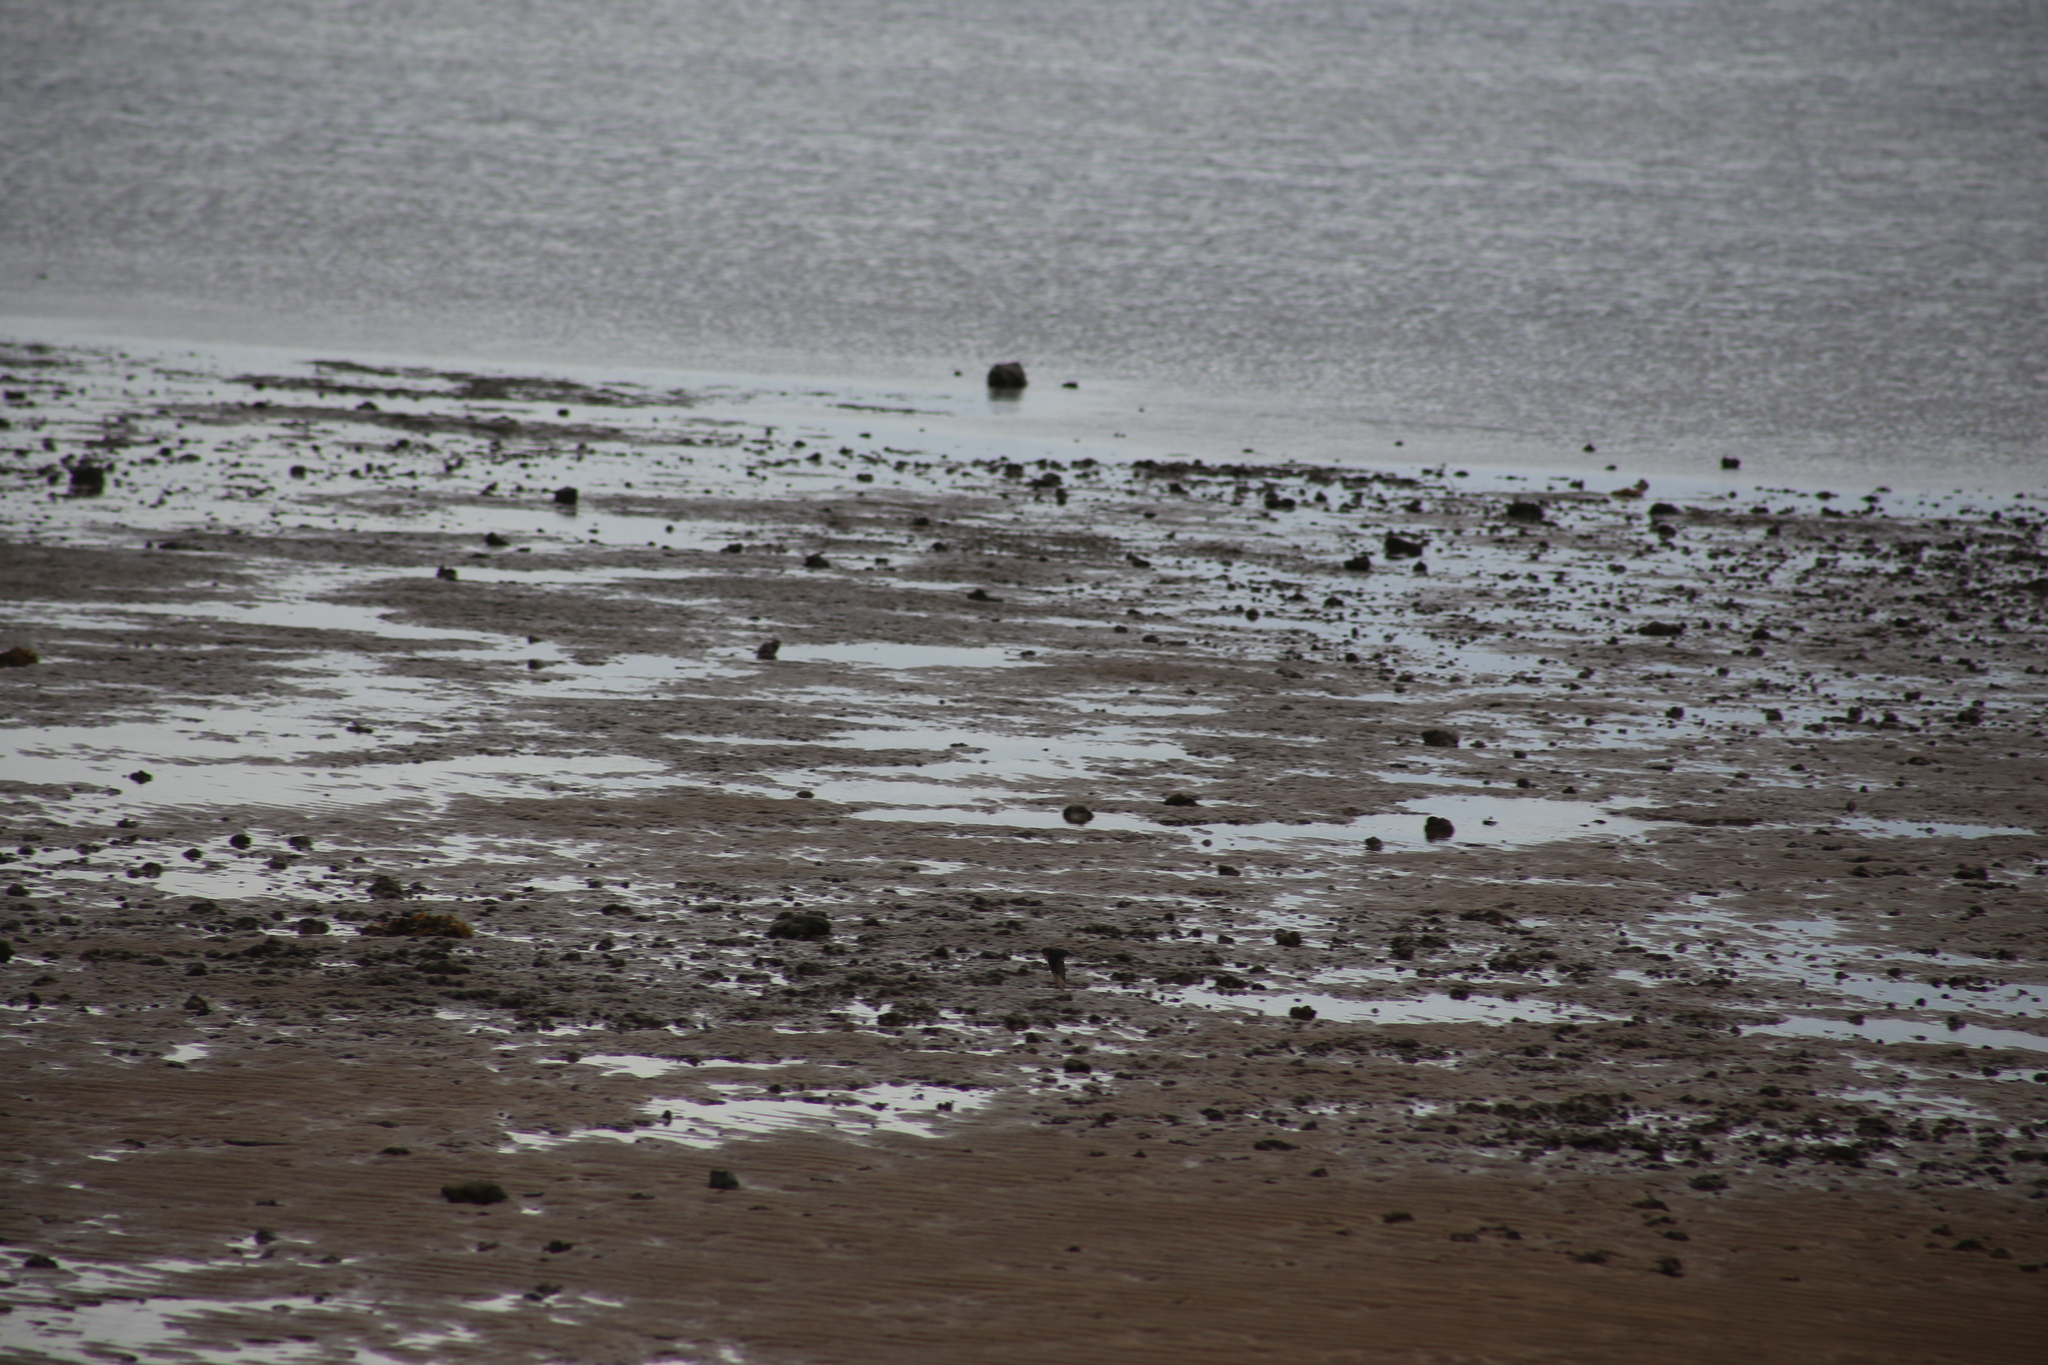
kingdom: Animalia
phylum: Chordata
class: Aves
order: Passeriformes
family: Hirundinidae
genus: Hirundo
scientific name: Hirundo neoxena
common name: Welcome swallow
